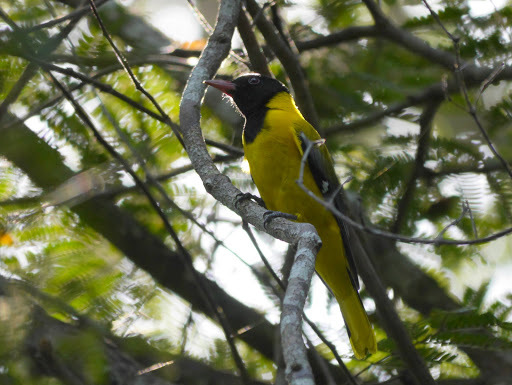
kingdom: Animalia
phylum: Chordata
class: Aves
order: Passeriformes
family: Oriolidae
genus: Oriolus
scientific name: Oriolus brachyrynchus
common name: Western oriole
